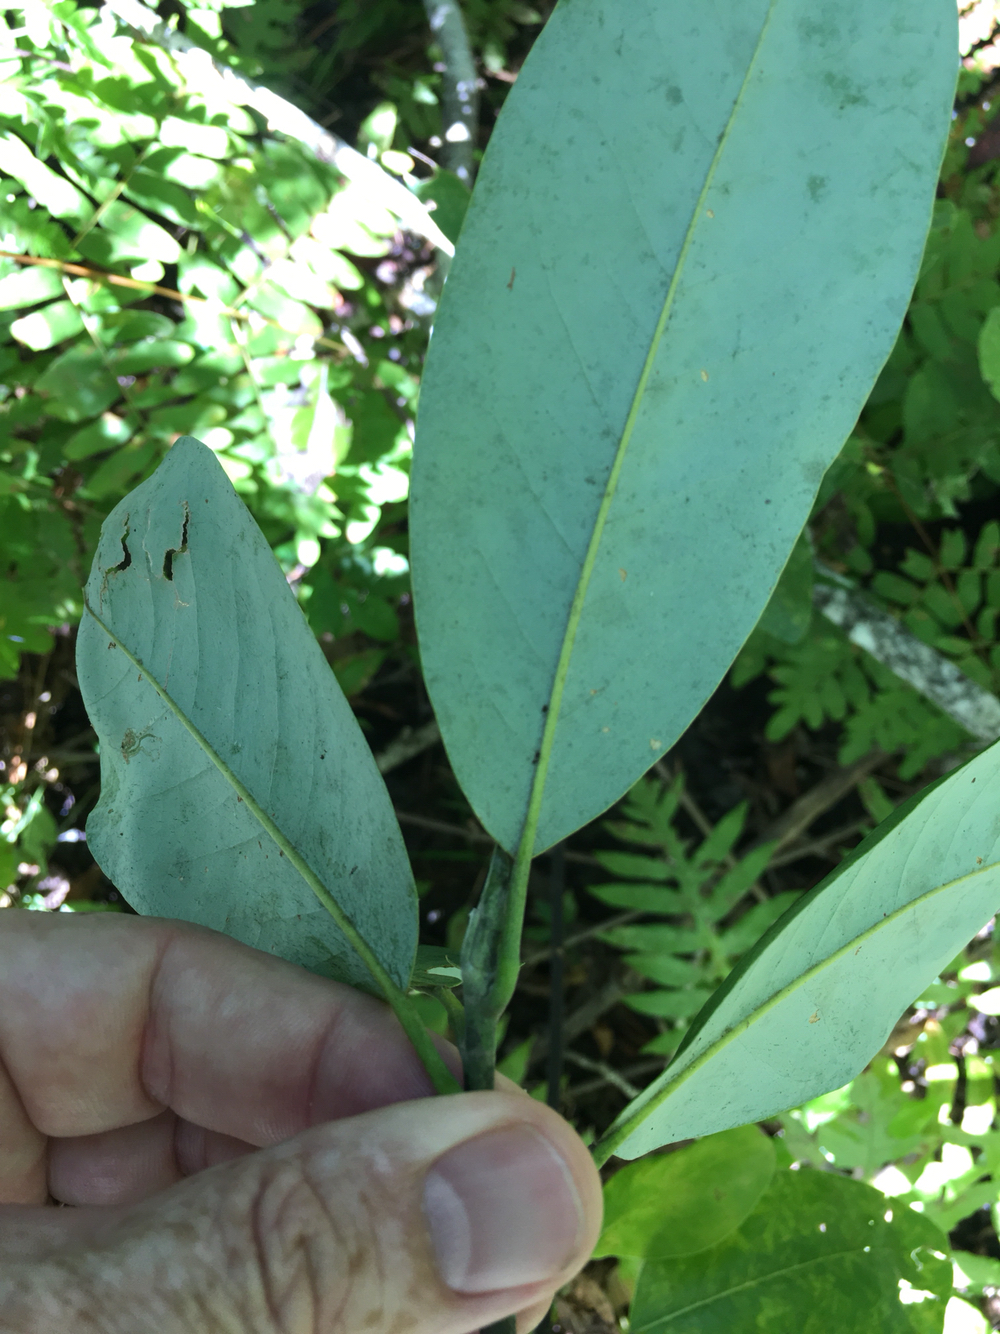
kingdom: Plantae
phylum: Tracheophyta
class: Magnoliopsida
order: Magnoliales
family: Magnoliaceae
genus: Magnolia
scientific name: Magnolia virginiana
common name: Swamp bay
